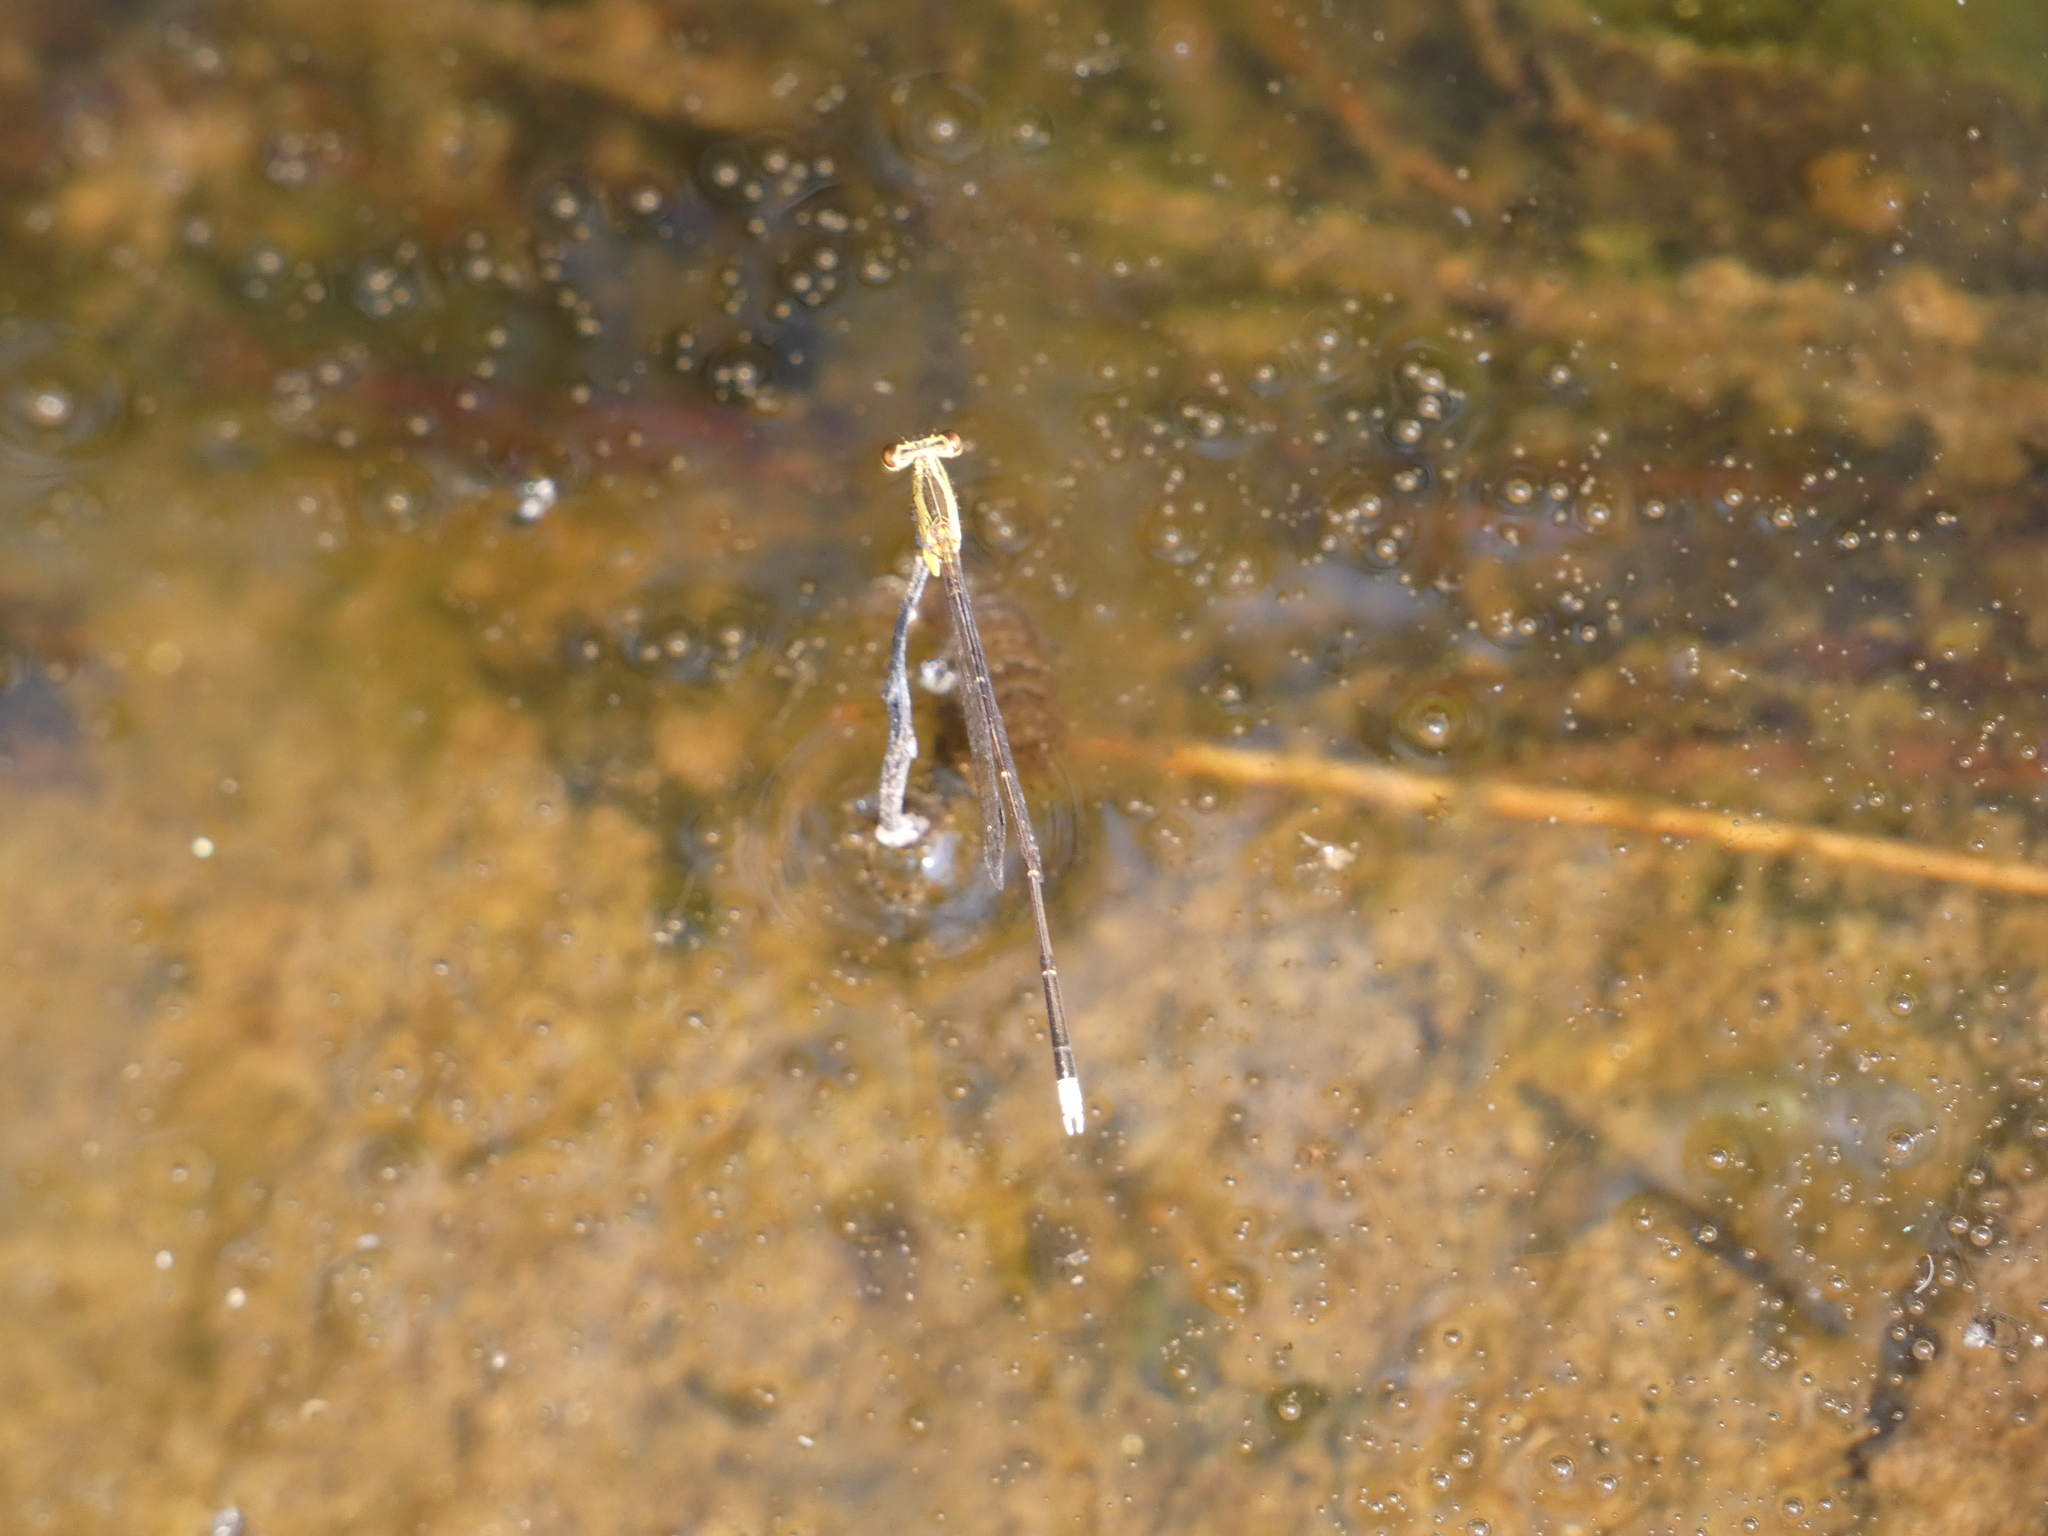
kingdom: Animalia
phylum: Arthropoda
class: Insecta
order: Odonata
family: Platycnemididae
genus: Copera
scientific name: Copera marginipes
